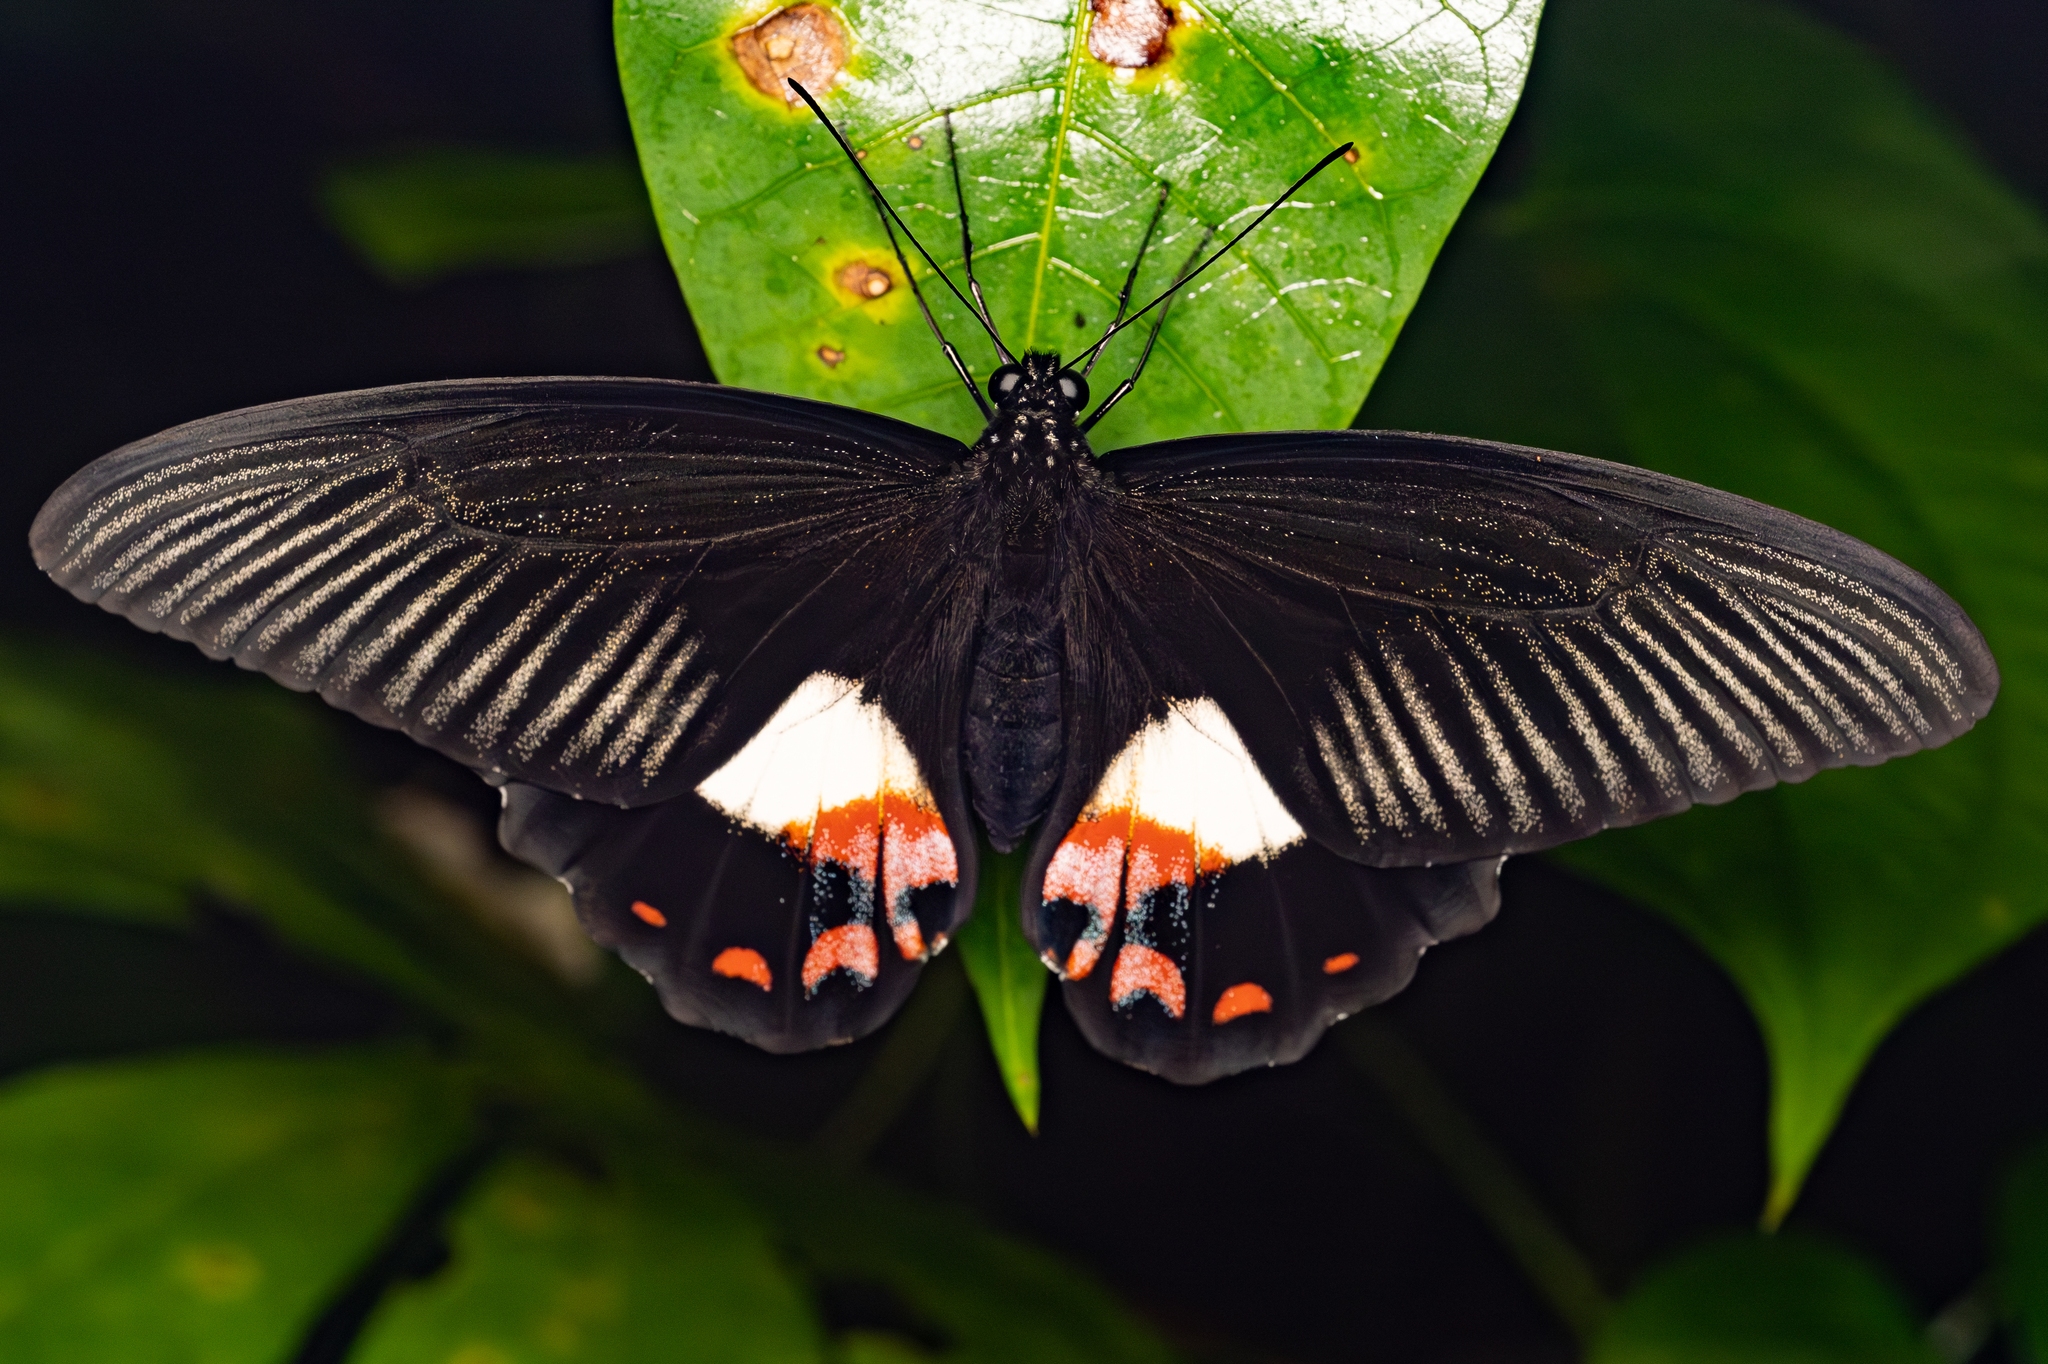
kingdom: Animalia
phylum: Arthropoda
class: Insecta
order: Lepidoptera
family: Papilionidae
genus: Papilio
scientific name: Papilio ambrax
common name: Ambrax butterfly
